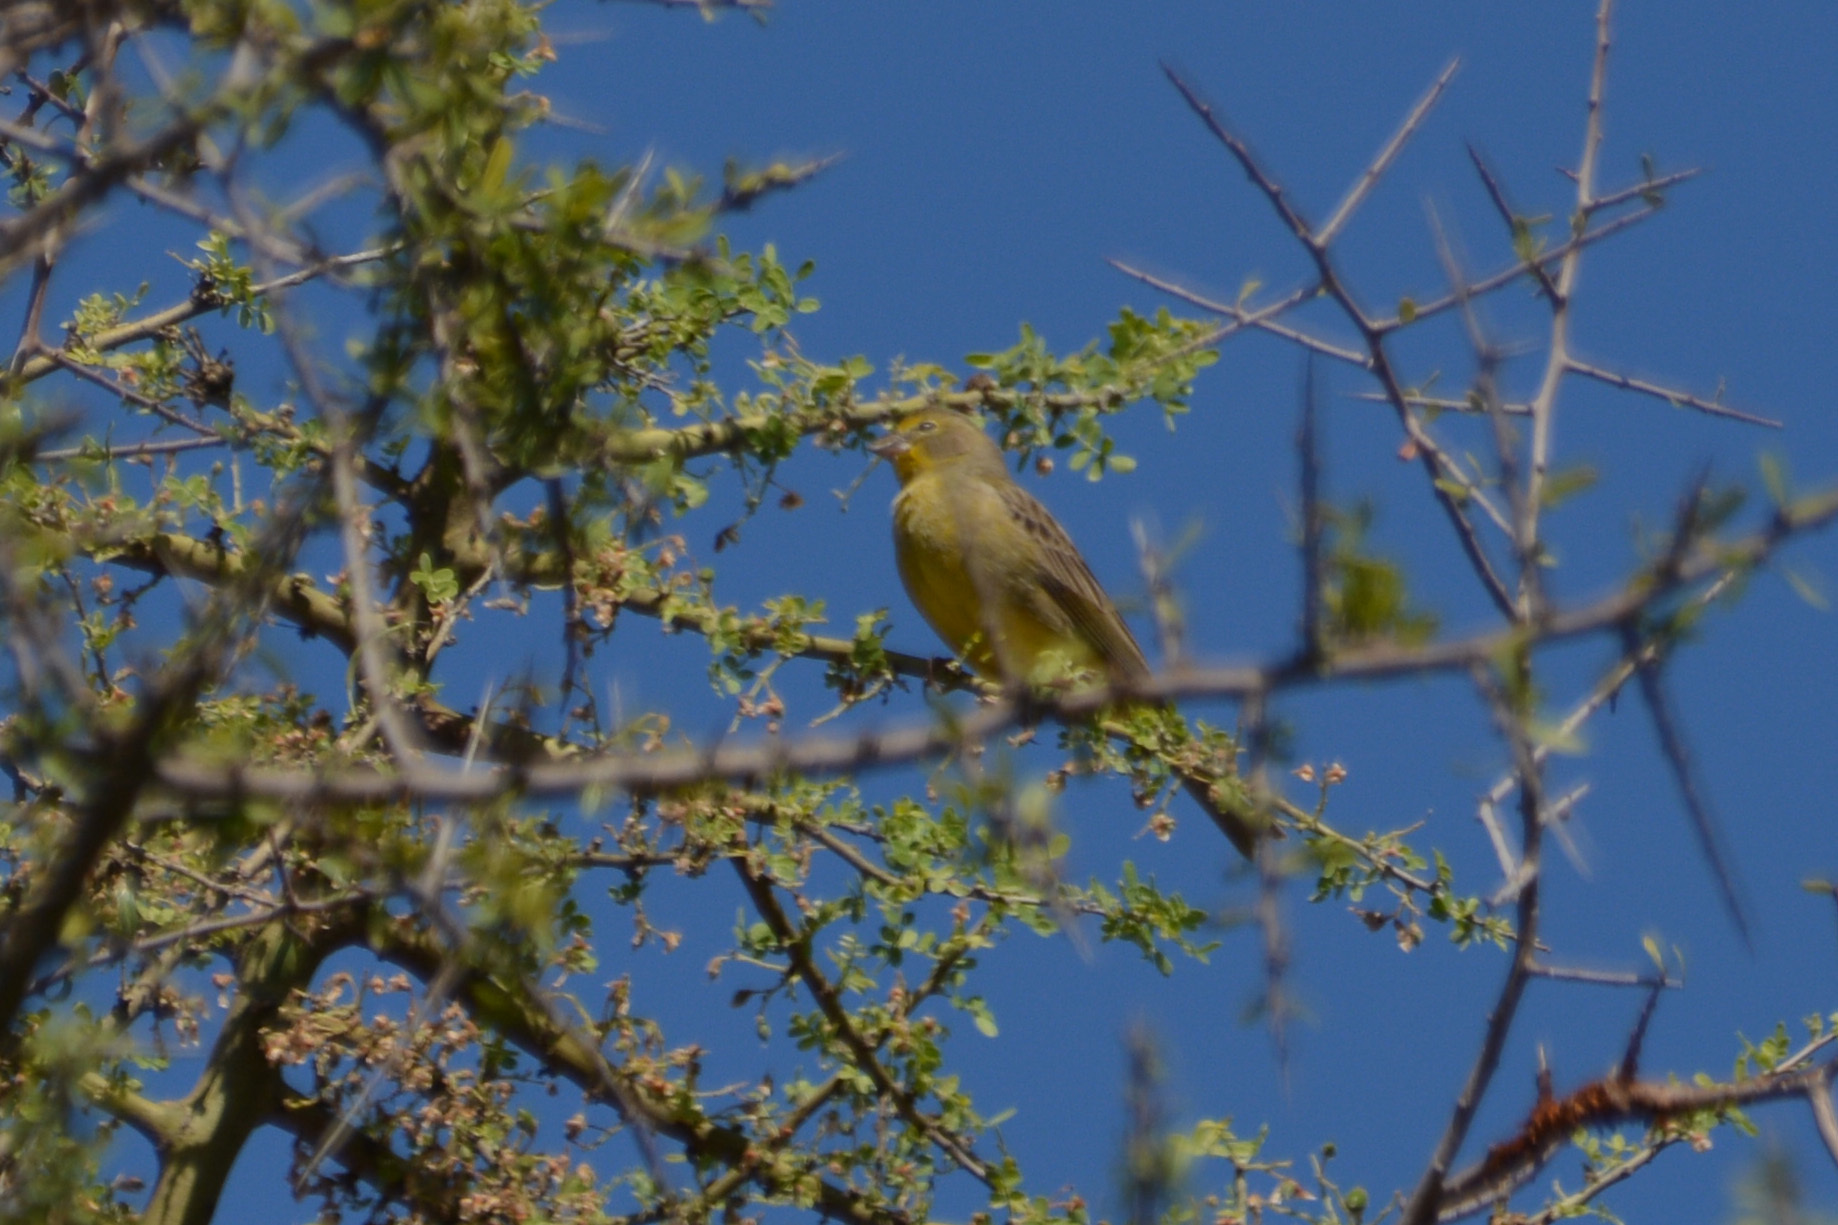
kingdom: Animalia
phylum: Chordata
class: Aves
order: Passeriformes
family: Thraupidae
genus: Sicalis
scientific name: Sicalis luteola
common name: Grassland yellow-finch
